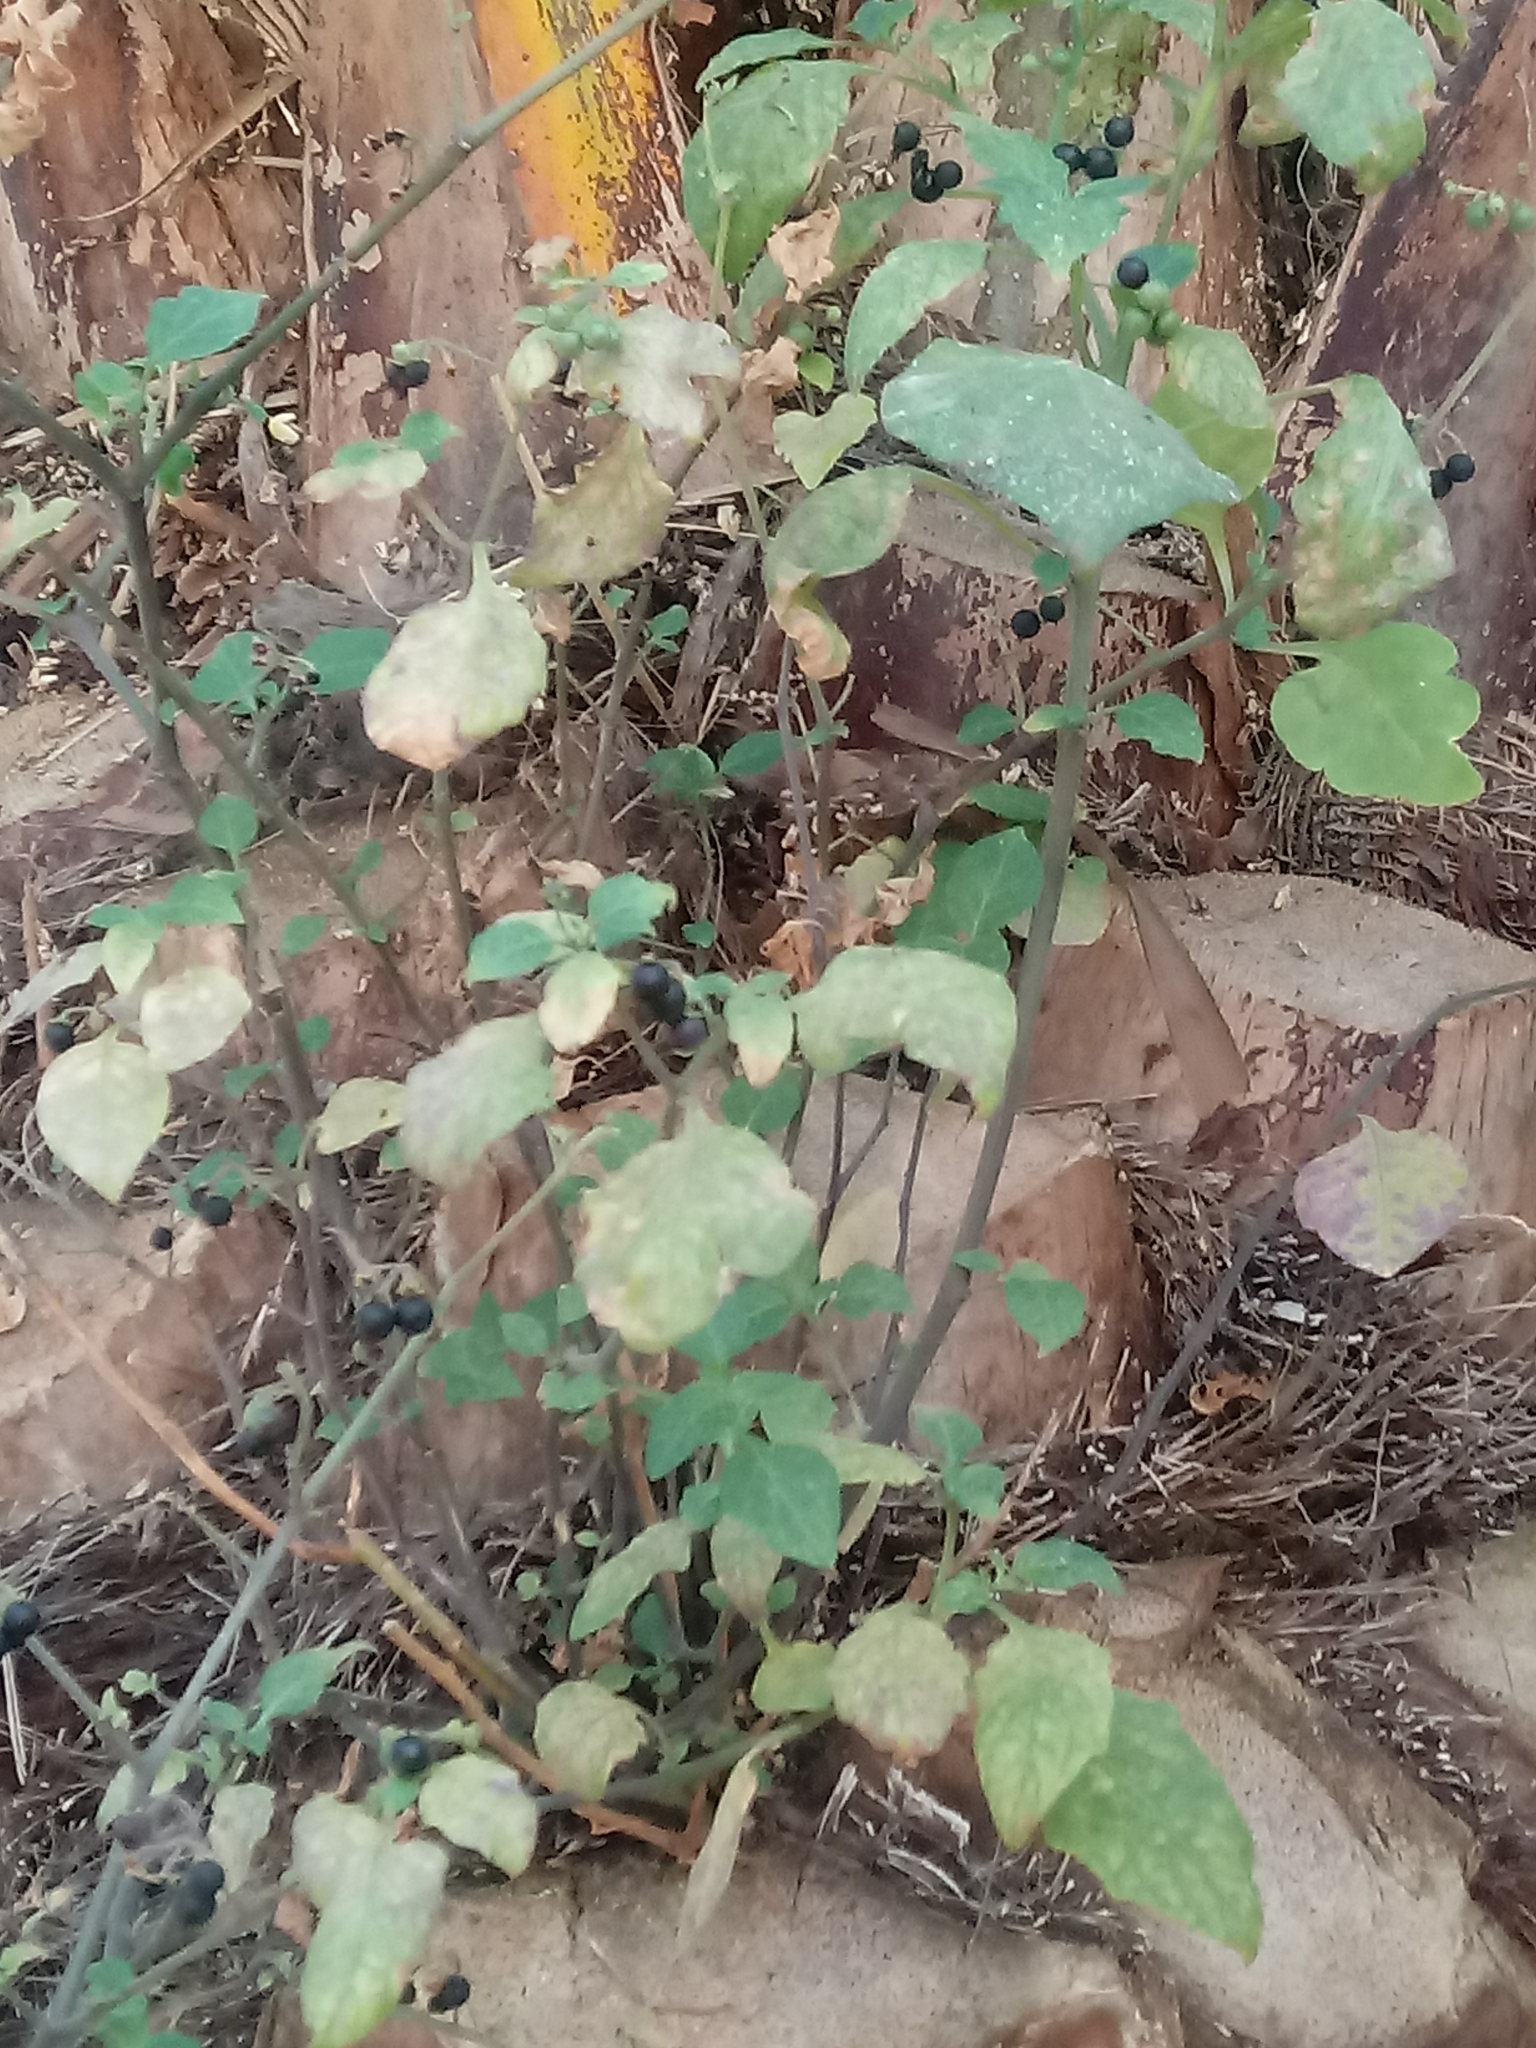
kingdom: Plantae
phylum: Tracheophyta
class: Magnoliopsida
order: Solanales
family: Solanaceae
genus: Solanum
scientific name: Solanum nigrescens
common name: Divine nightshade
